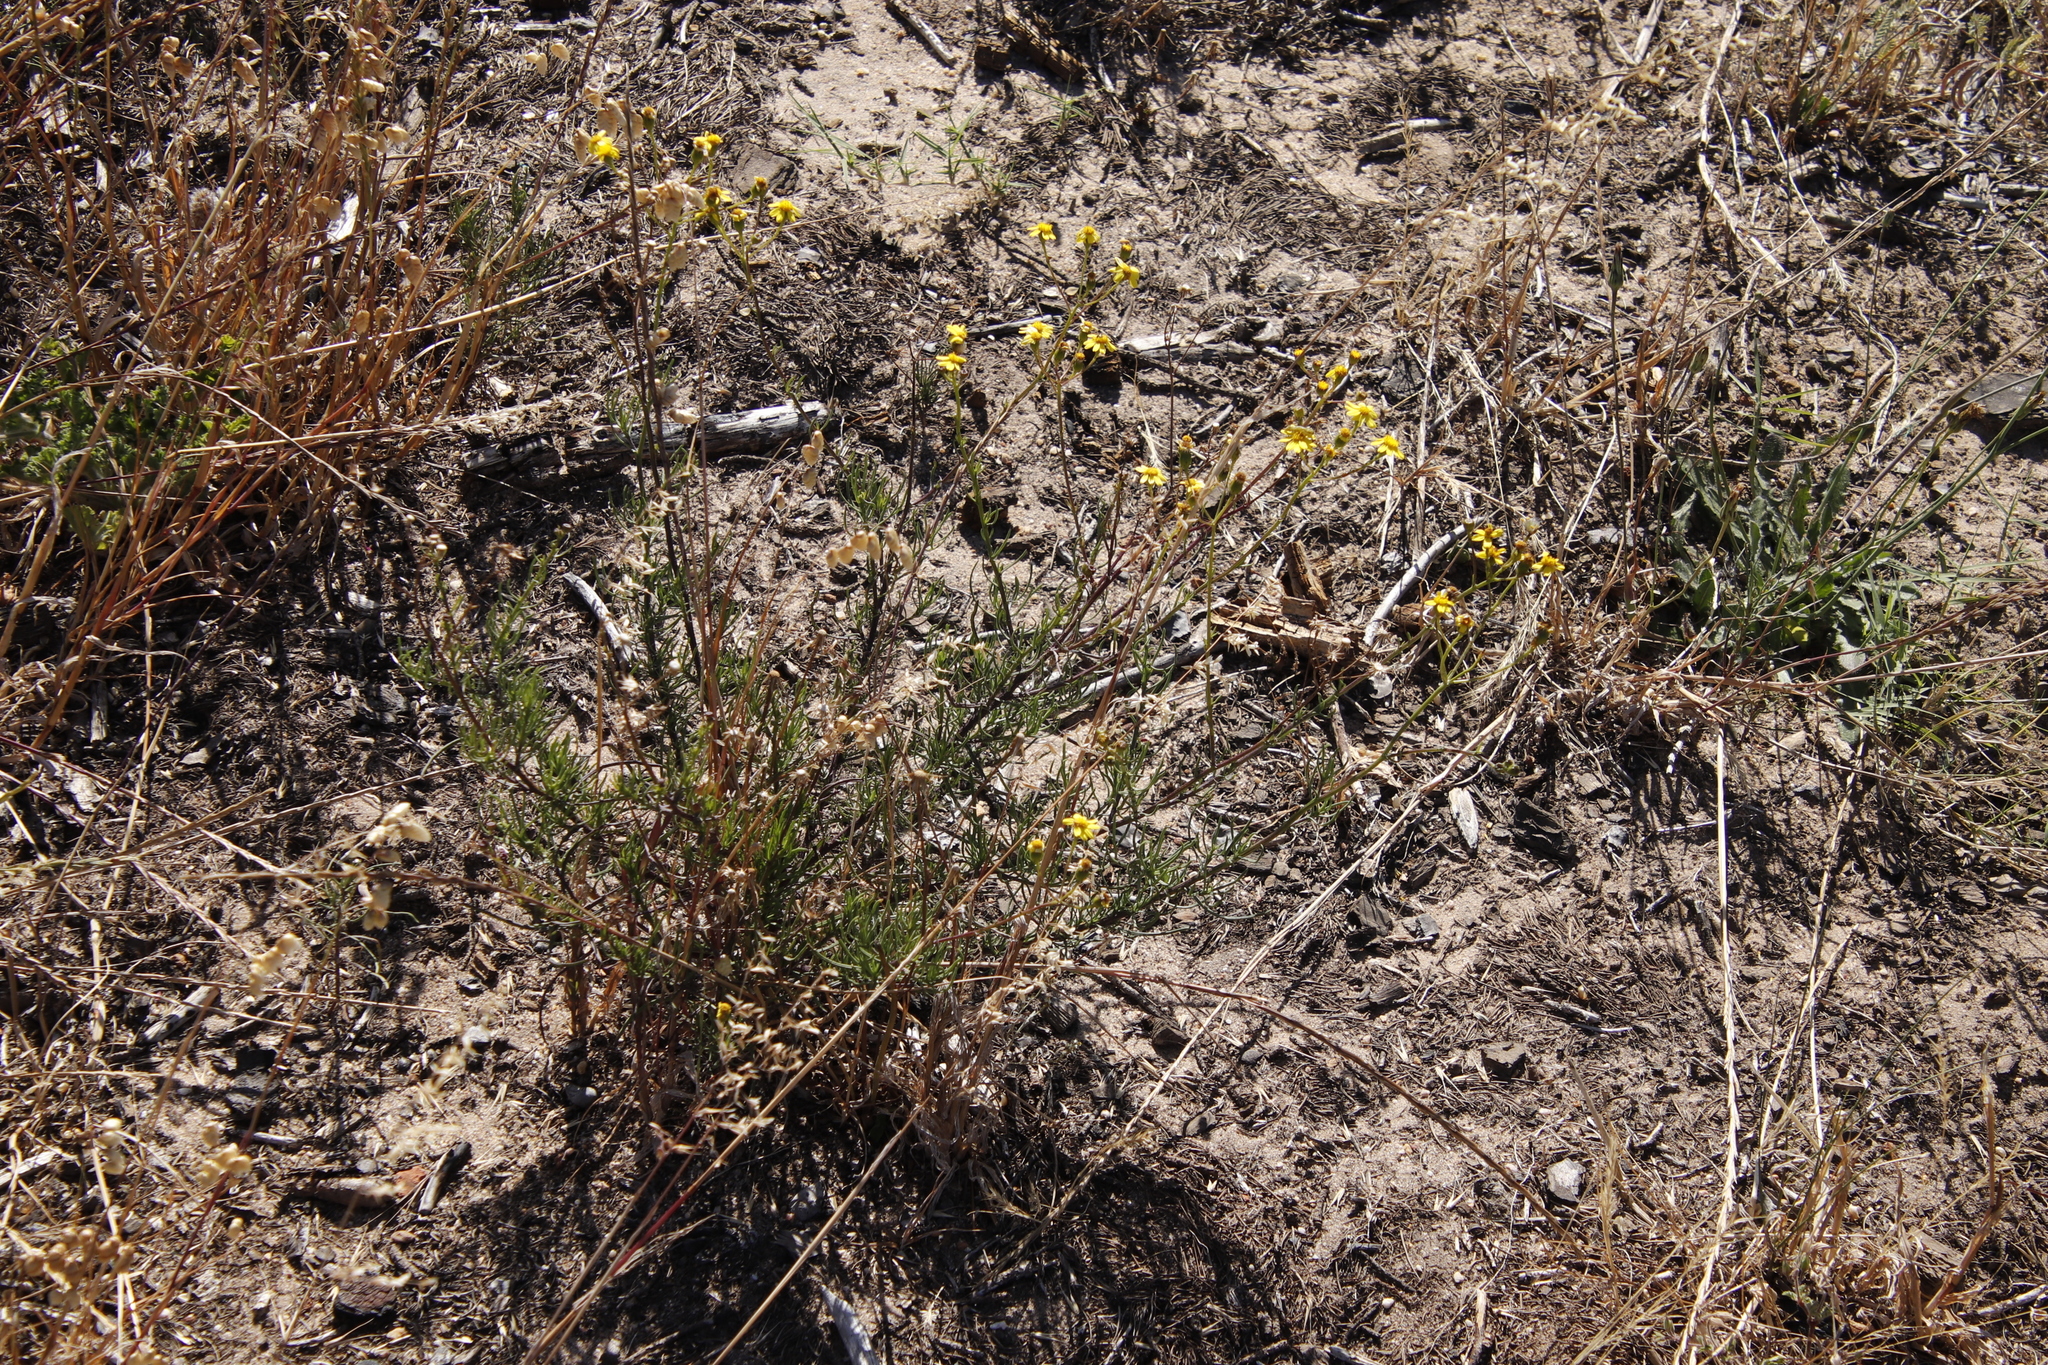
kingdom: Plantae
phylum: Tracheophyta
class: Magnoliopsida
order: Asterales
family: Asteraceae
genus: Senecio
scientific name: Senecio burchellii
